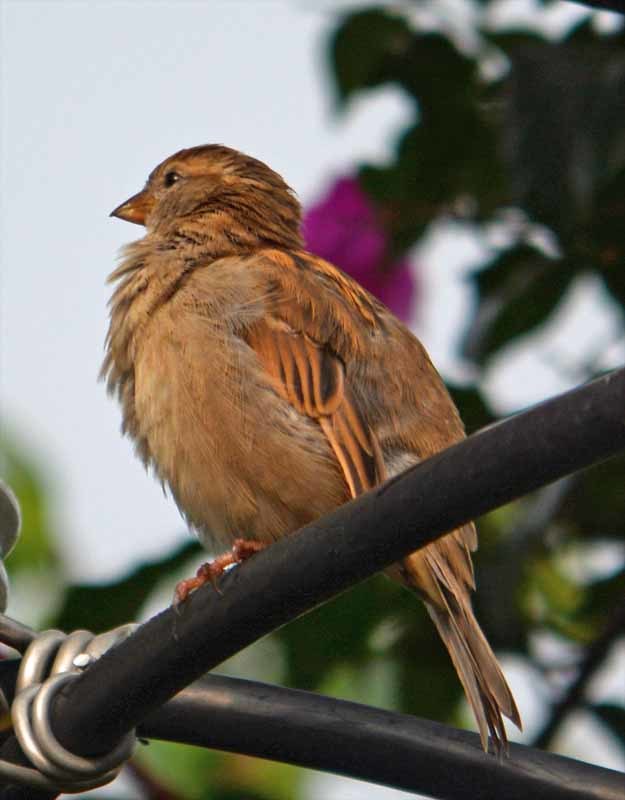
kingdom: Animalia
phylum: Chordata
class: Aves
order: Passeriformes
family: Passeridae
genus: Passer
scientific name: Passer domesticus
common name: House sparrow
